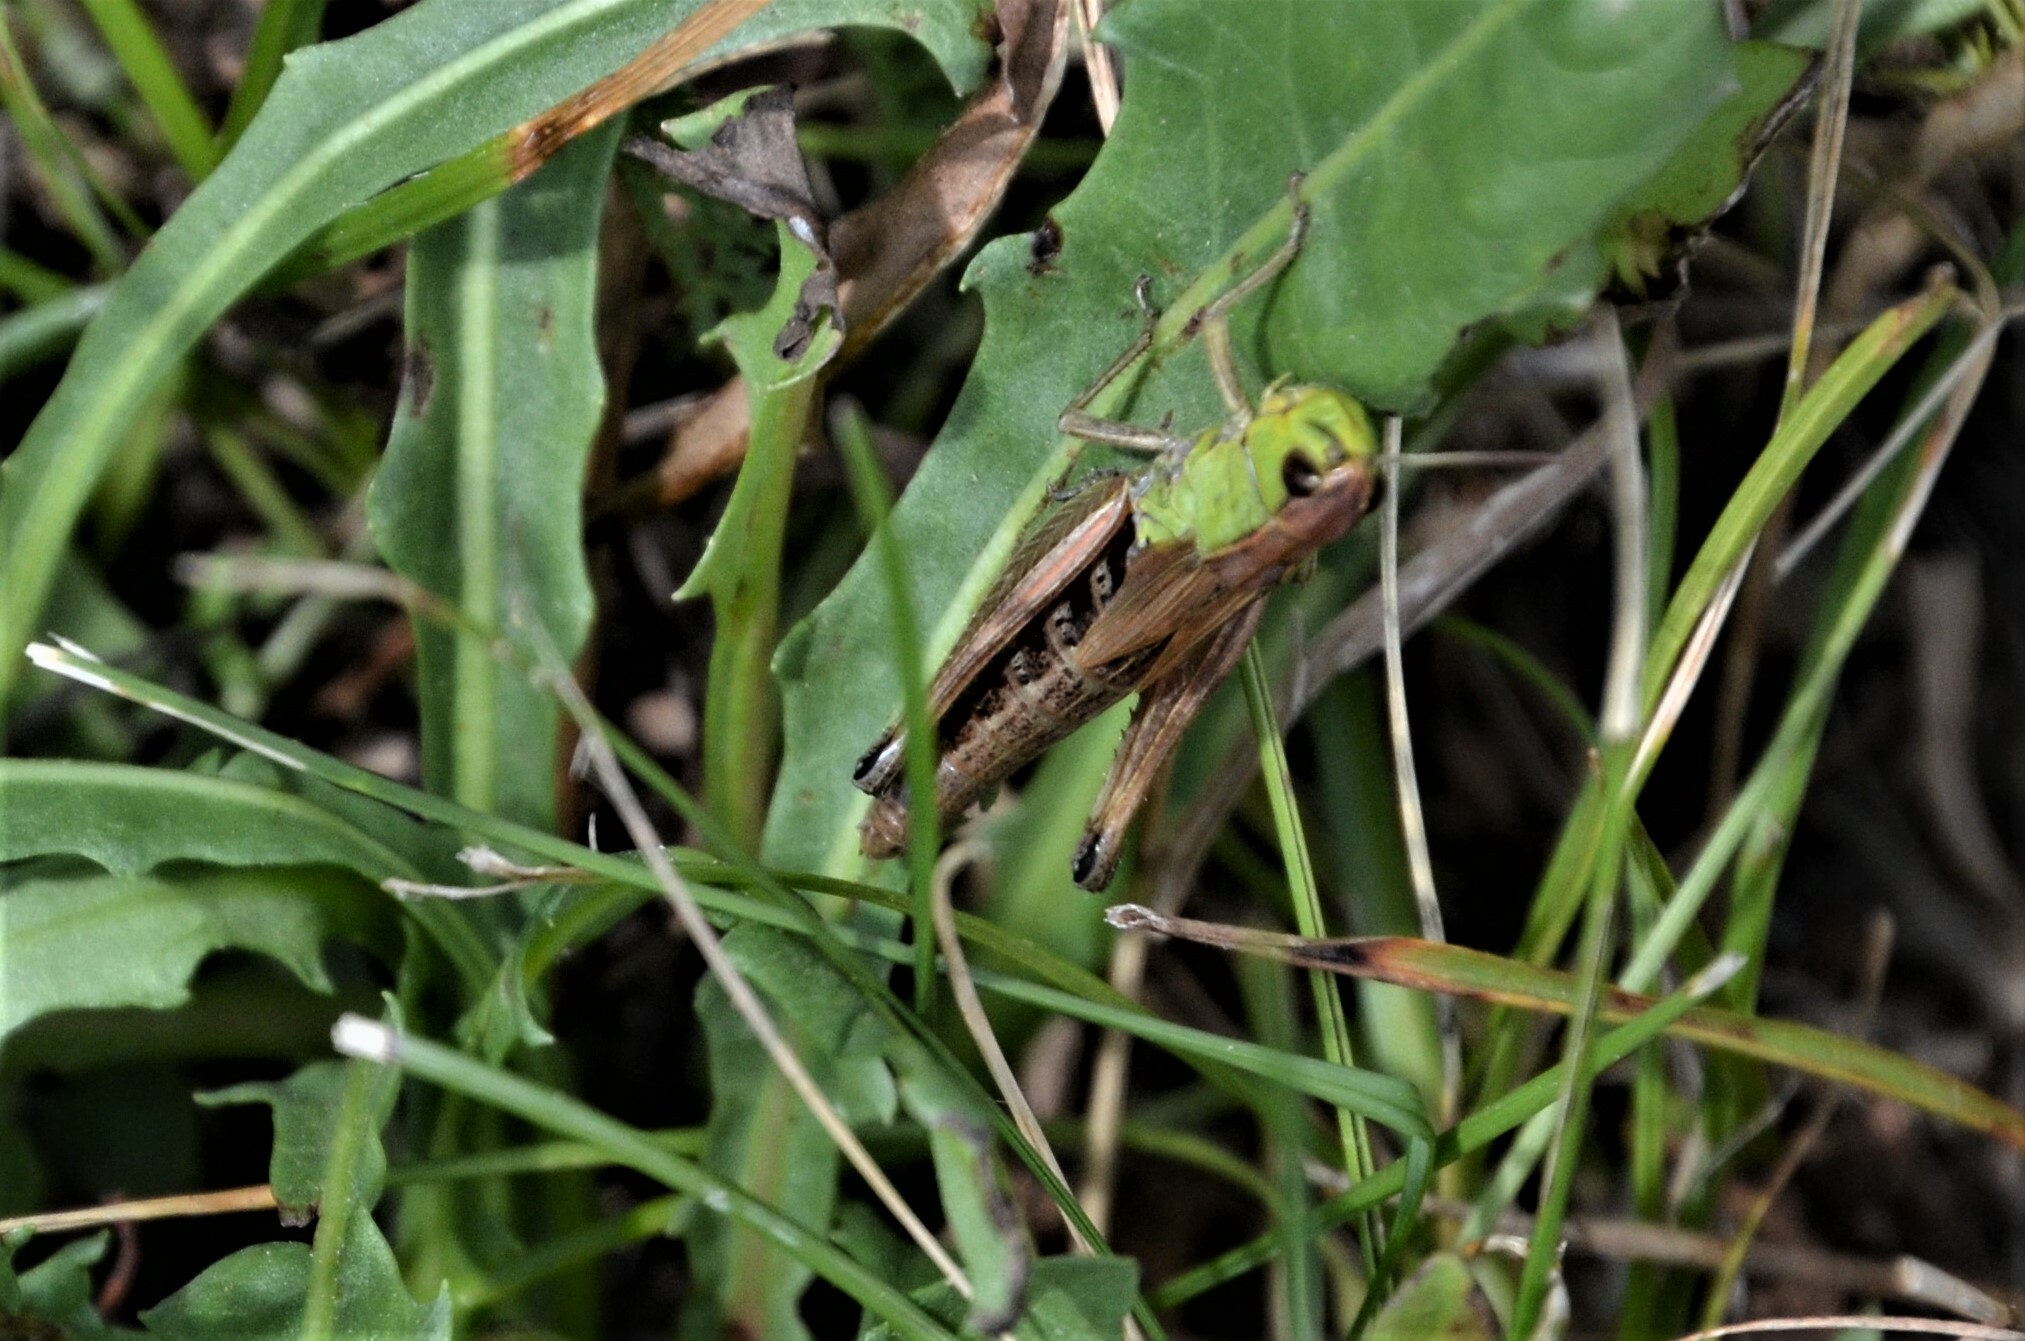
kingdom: Animalia
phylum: Arthropoda
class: Insecta
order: Orthoptera
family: Acrididae
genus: Pseudochorthippus
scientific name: Pseudochorthippus parallelus
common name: Meadow grasshopper
